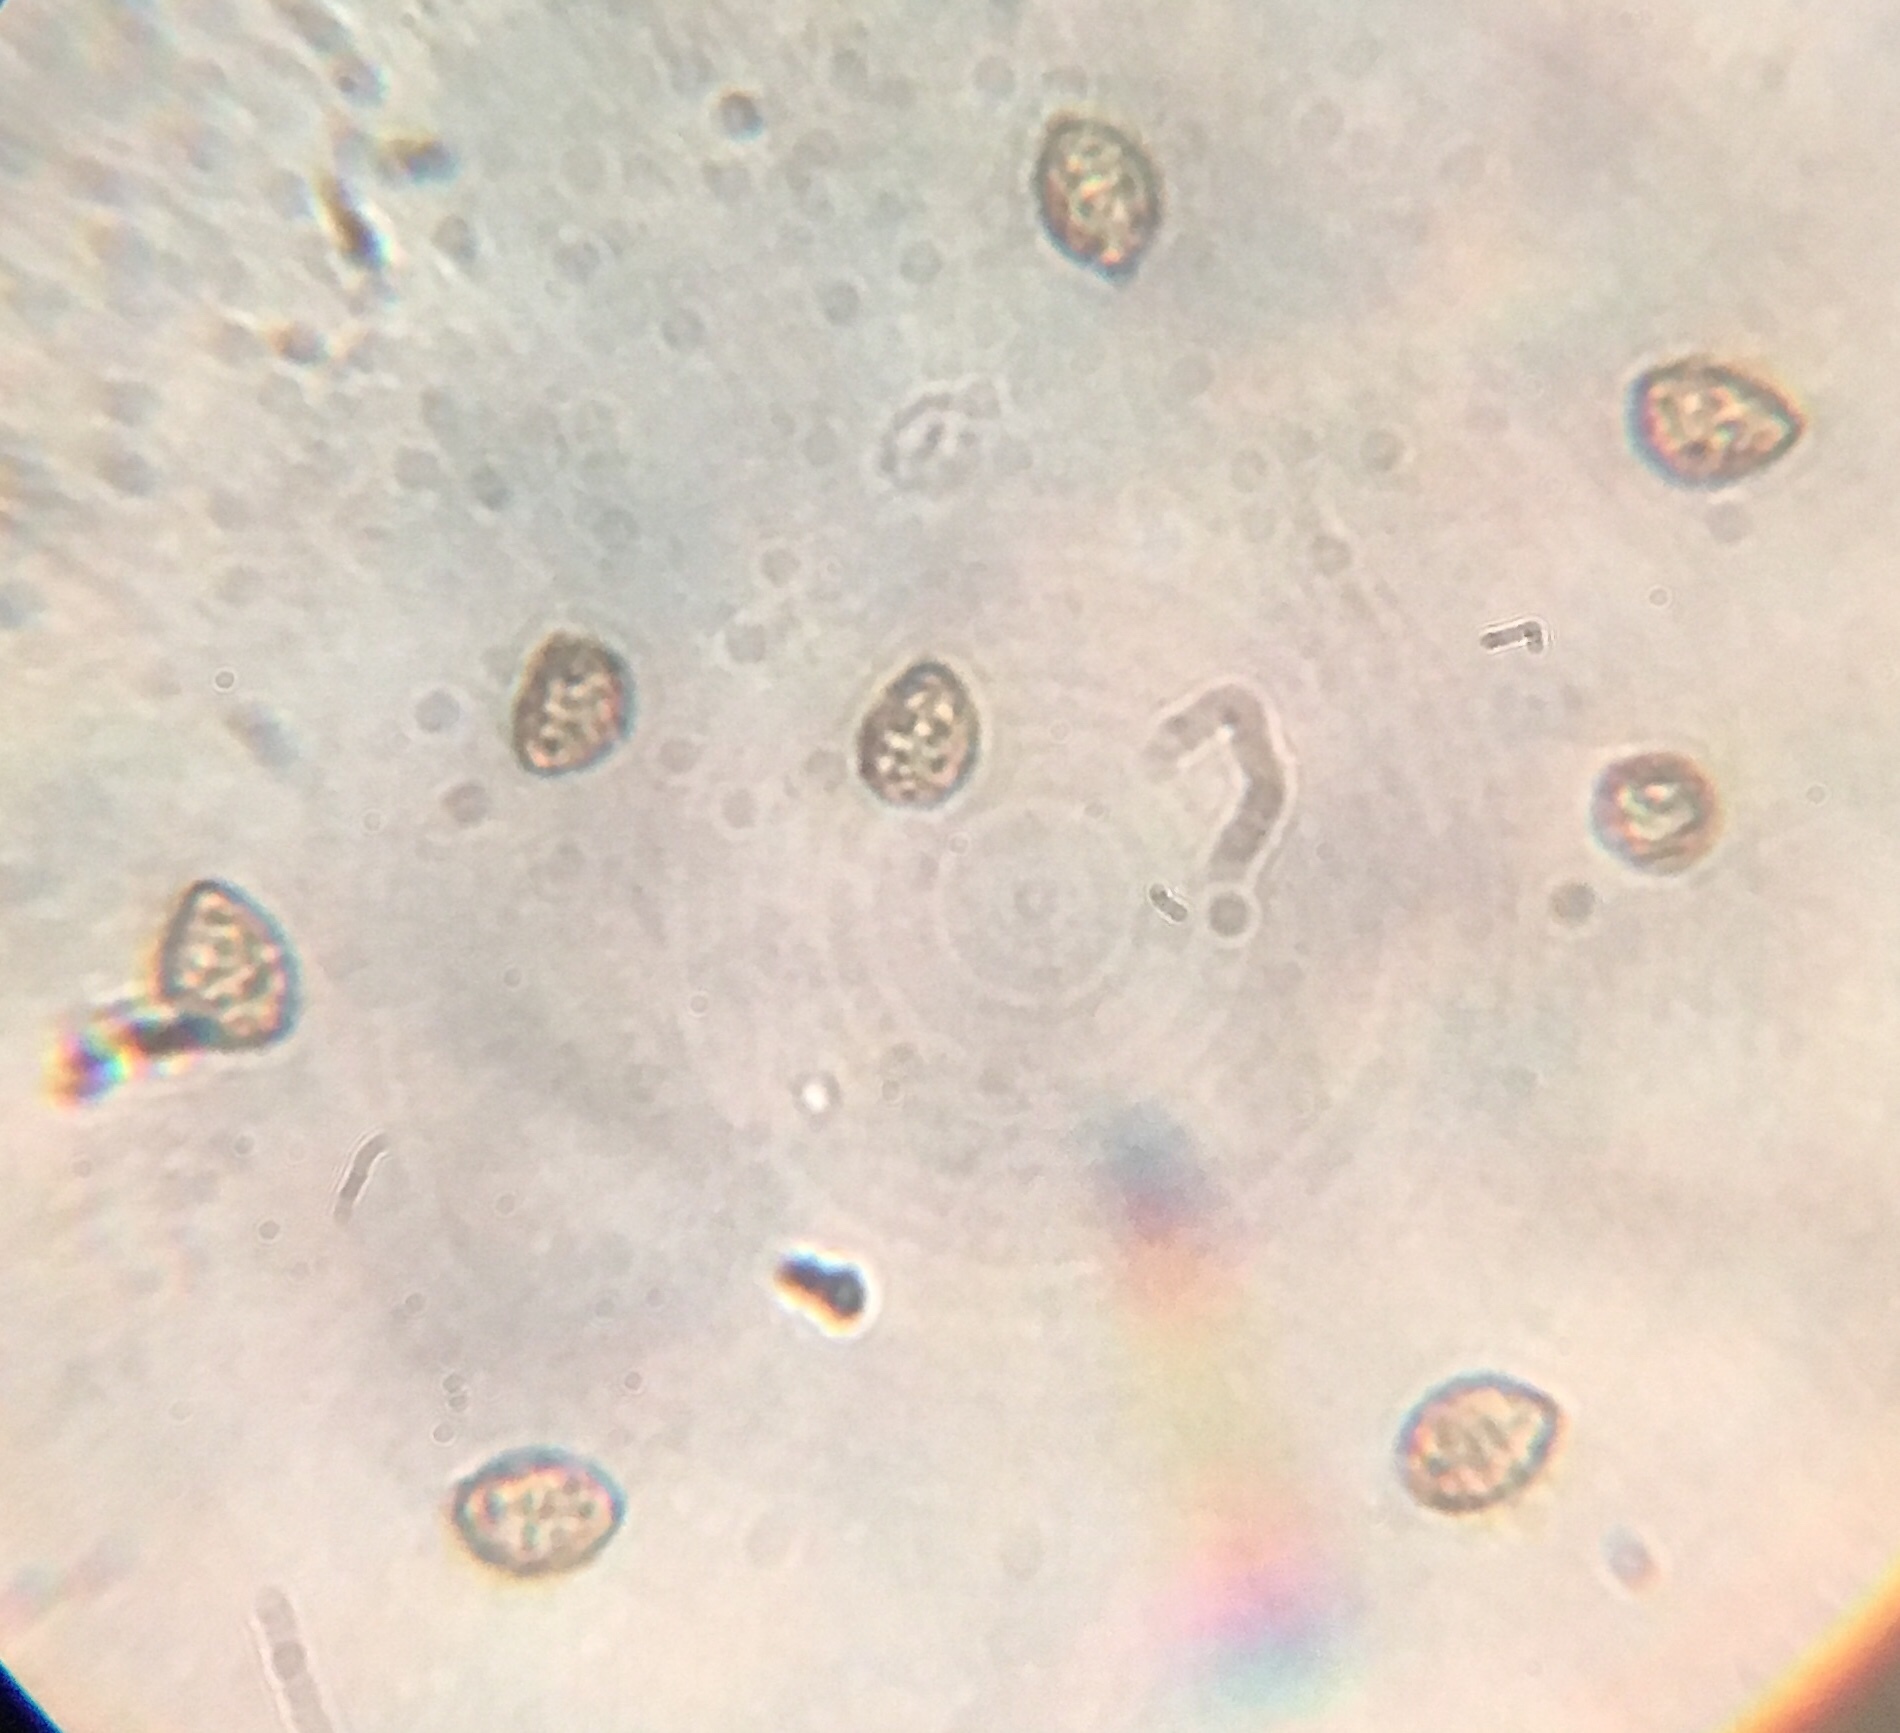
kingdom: Fungi
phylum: Basidiomycota
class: Agaricomycetes
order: Agaricales
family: Cortinariaceae
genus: Cortinarius
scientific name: Cortinarius caperatus
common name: The gypsy
